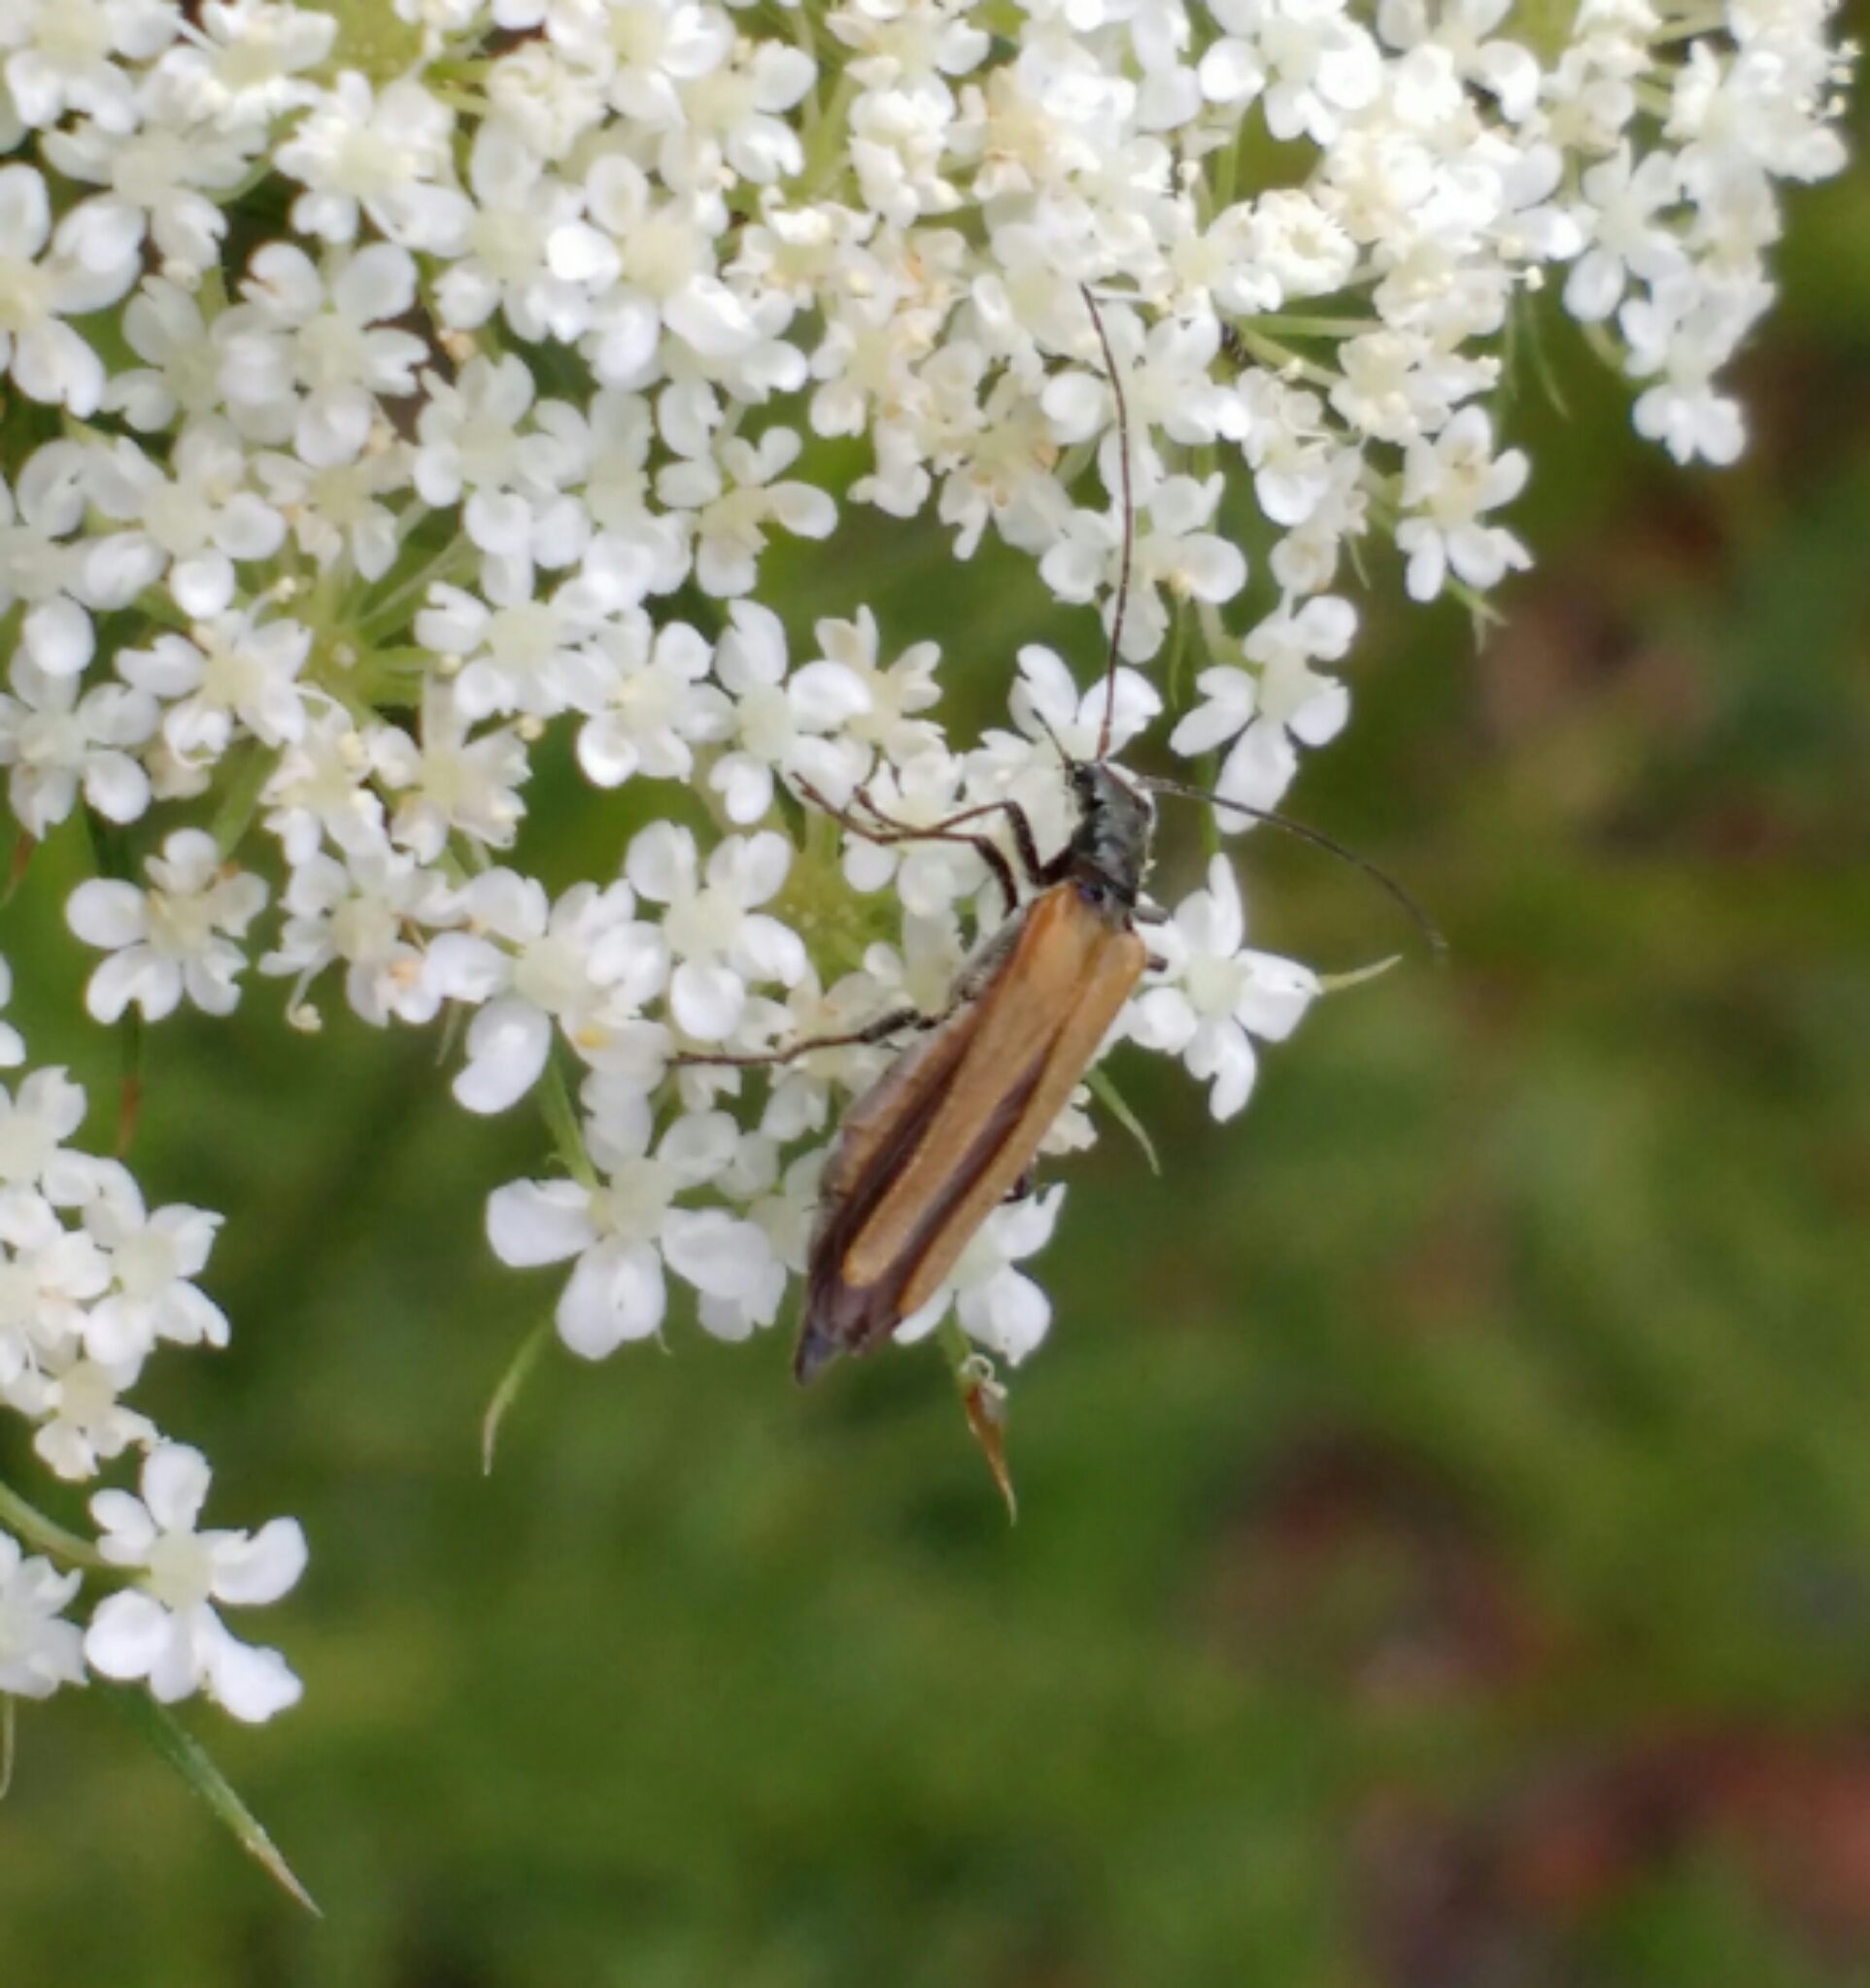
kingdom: Animalia
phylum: Arthropoda
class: Insecta
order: Coleoptera
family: Oedemeridae
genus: Oedemera
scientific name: Oedemera femorata
